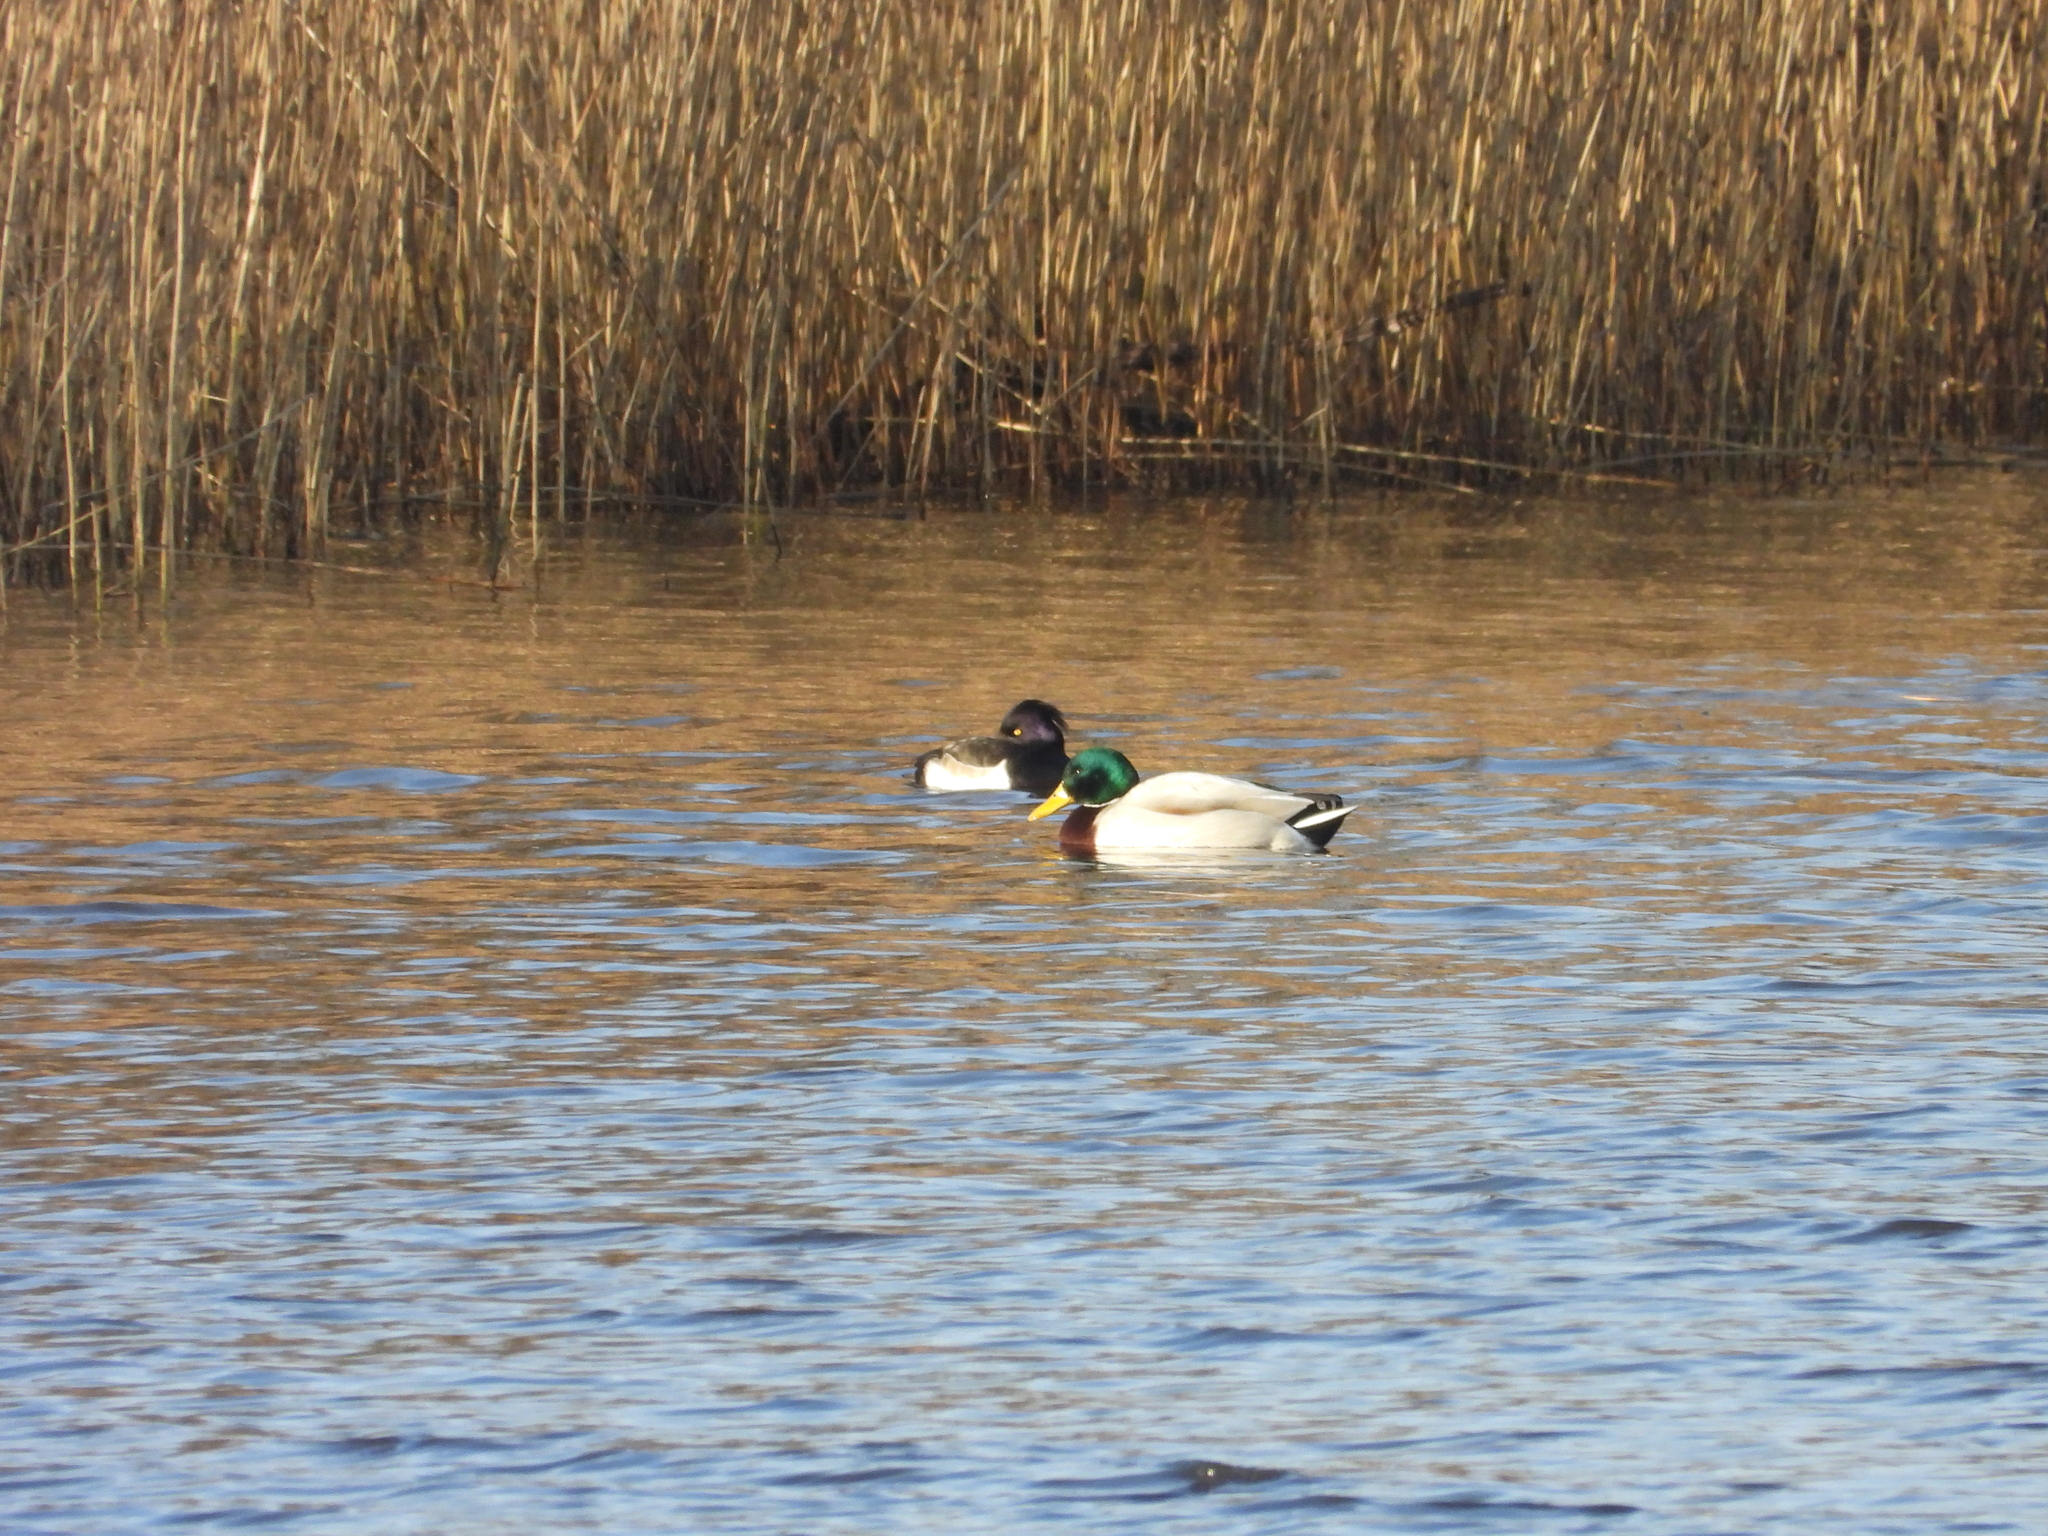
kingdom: Animalia
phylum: Chordata
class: Aves
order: Anseriformes
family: Anatidae
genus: Aythya
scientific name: Aythya fuligula
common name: Tufted duck
